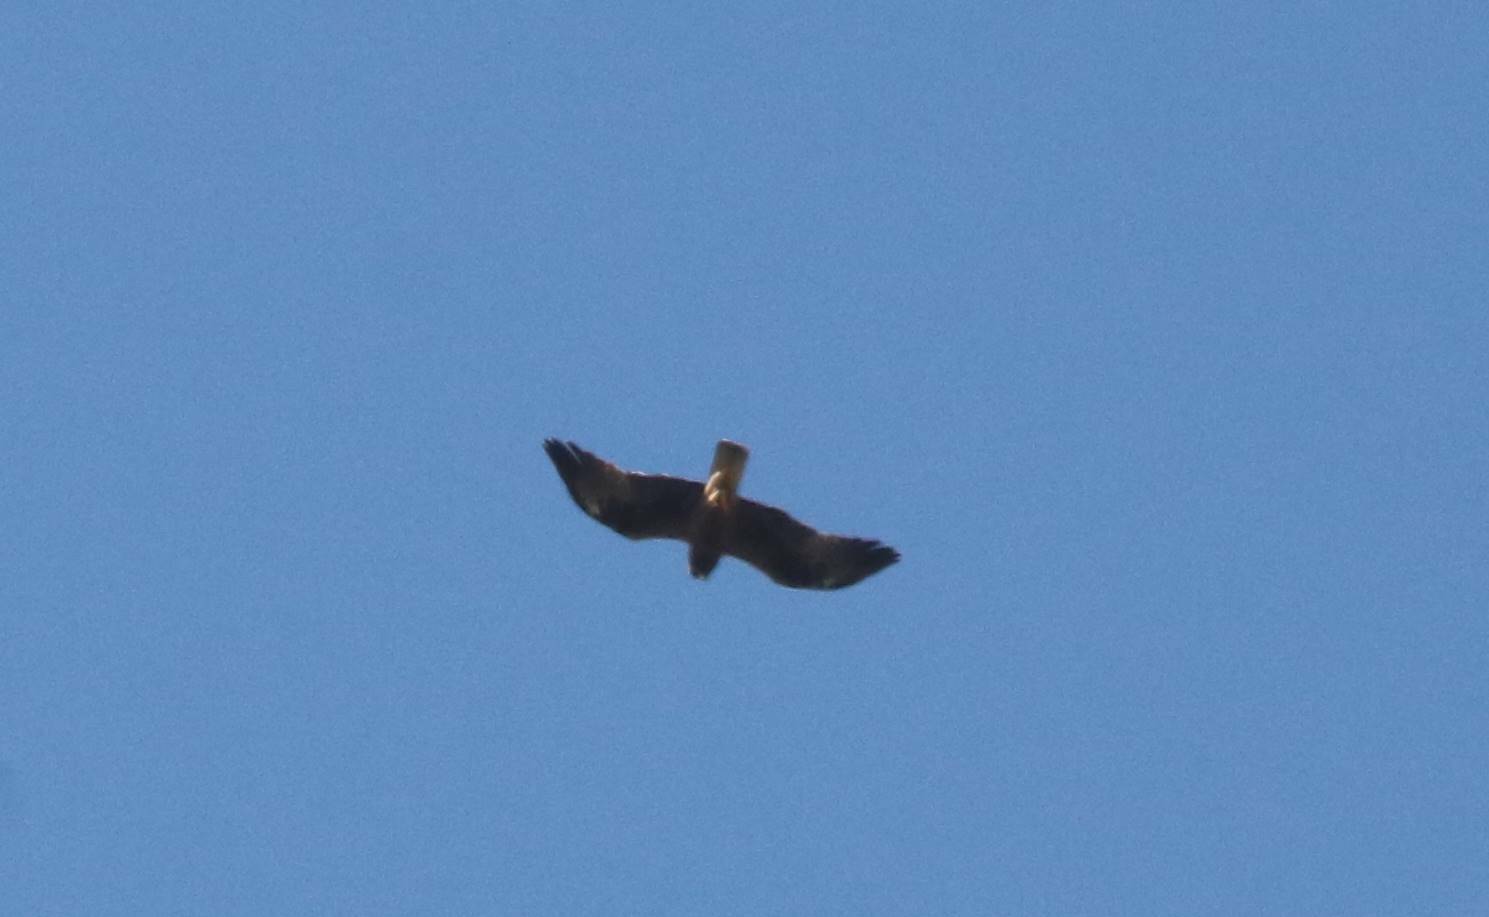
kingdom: Animalia
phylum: Chordata
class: Aves
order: Accipitriformes
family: Accipitridae
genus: Hieraaetus
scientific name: Hieraaetus pennatus
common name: Booted eagle
